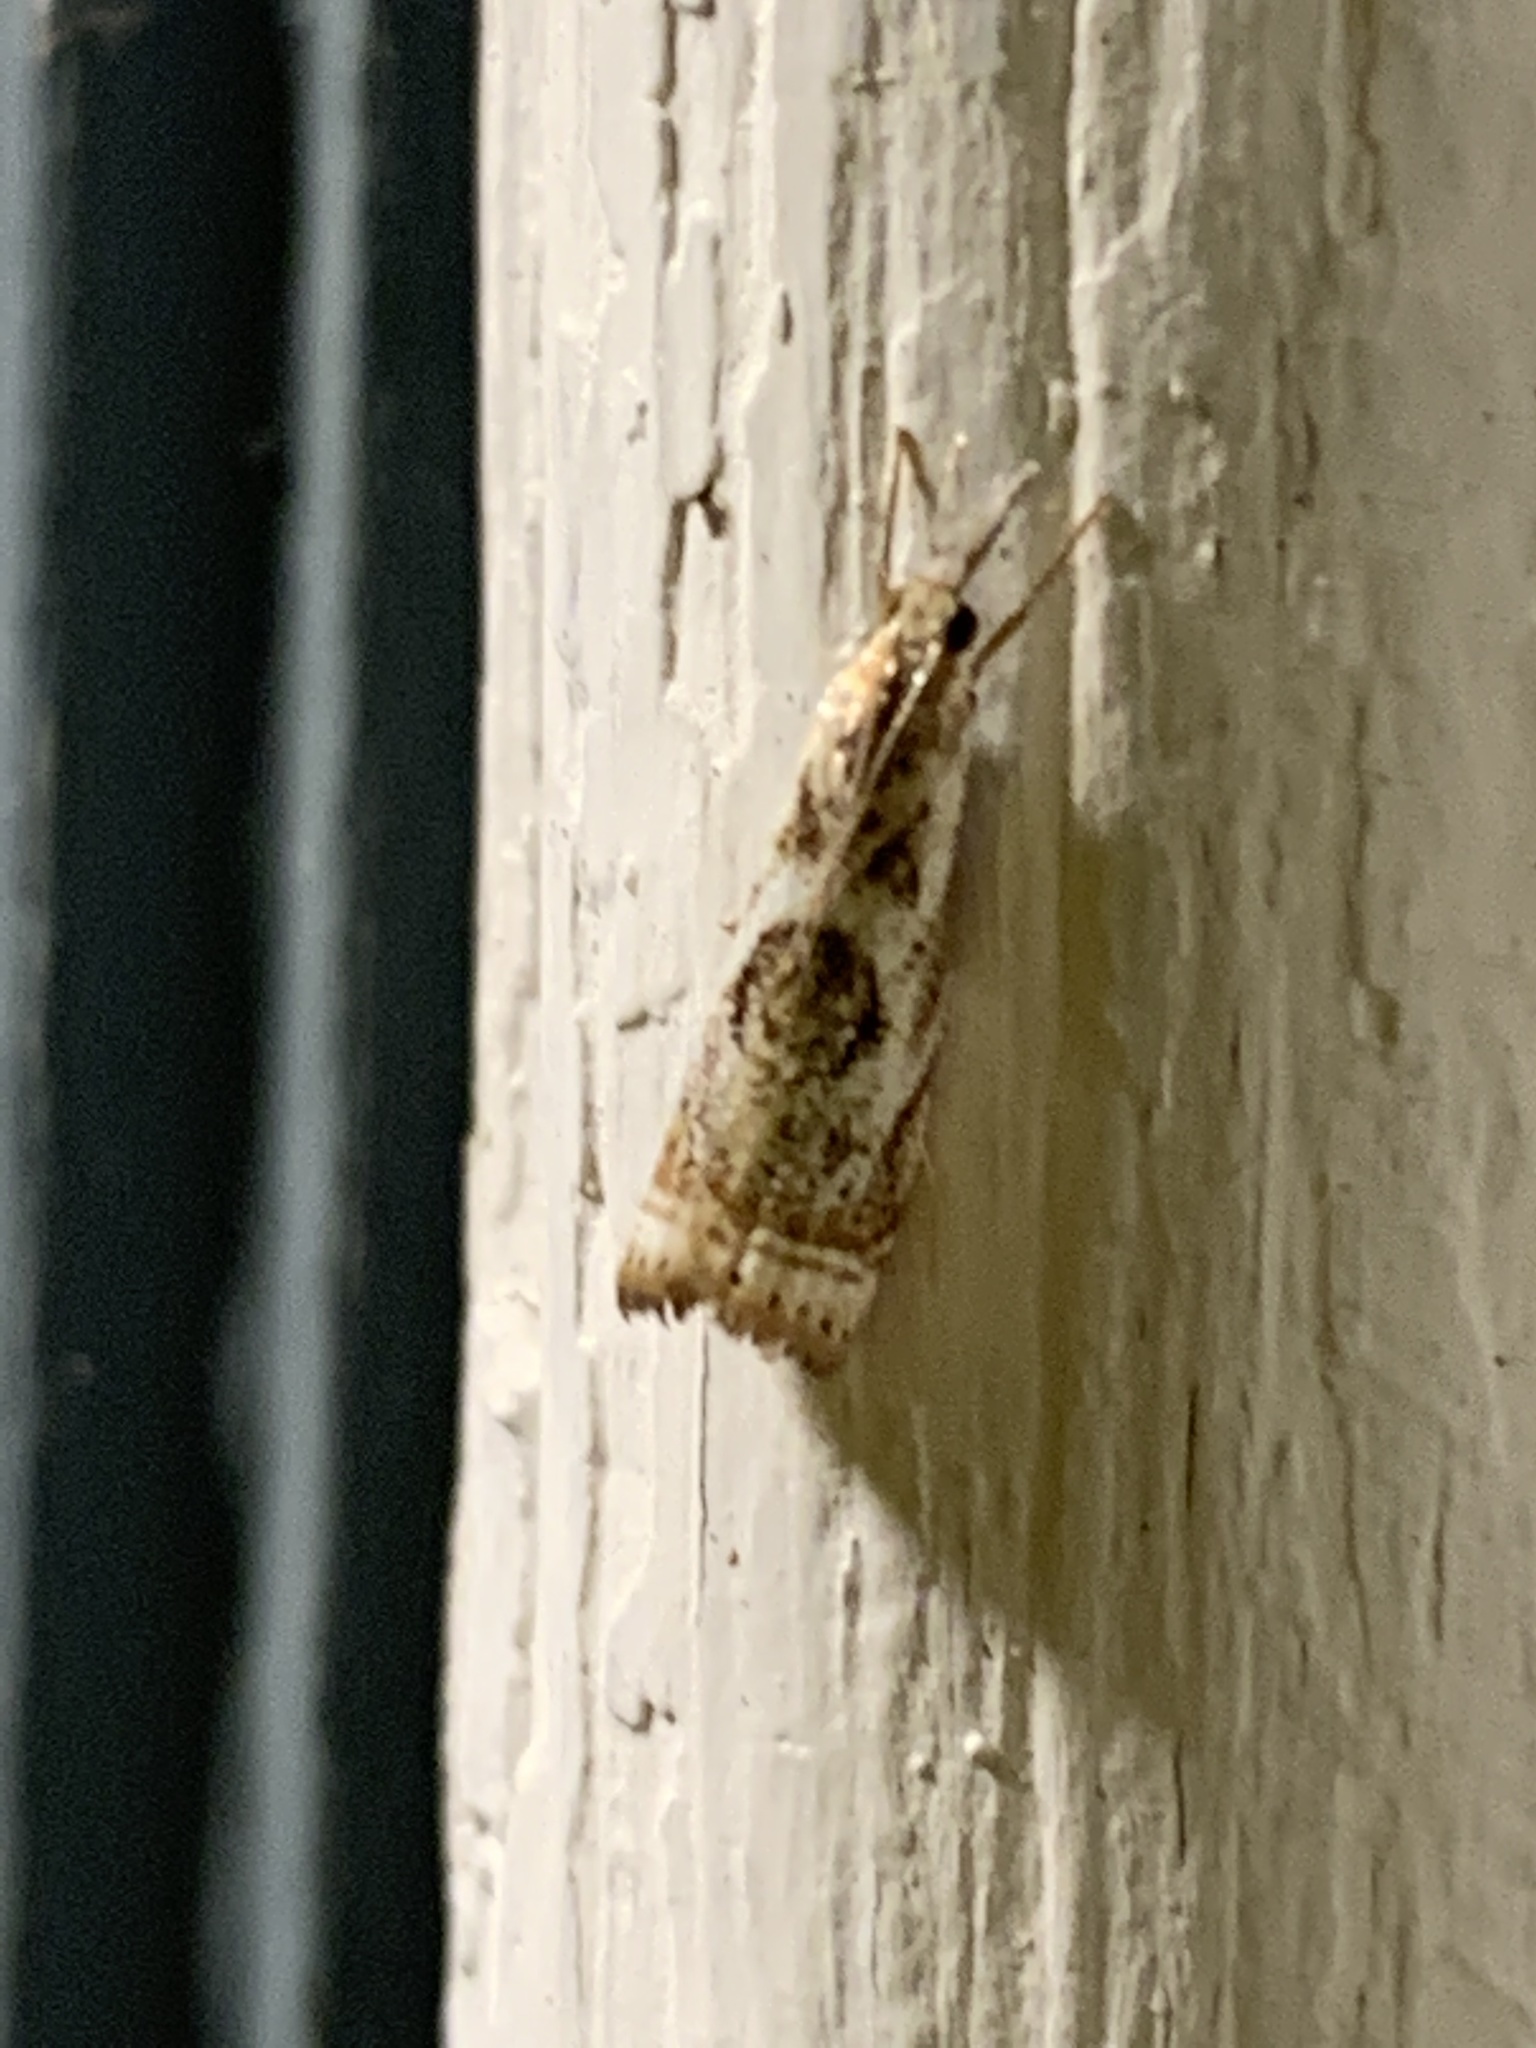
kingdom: Animalia
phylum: Arthropoda
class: Insecta
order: Lepidoptera
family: Crambidae
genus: Microcrambus
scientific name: Microcrambus elegans
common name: Elegant grass-veneer
